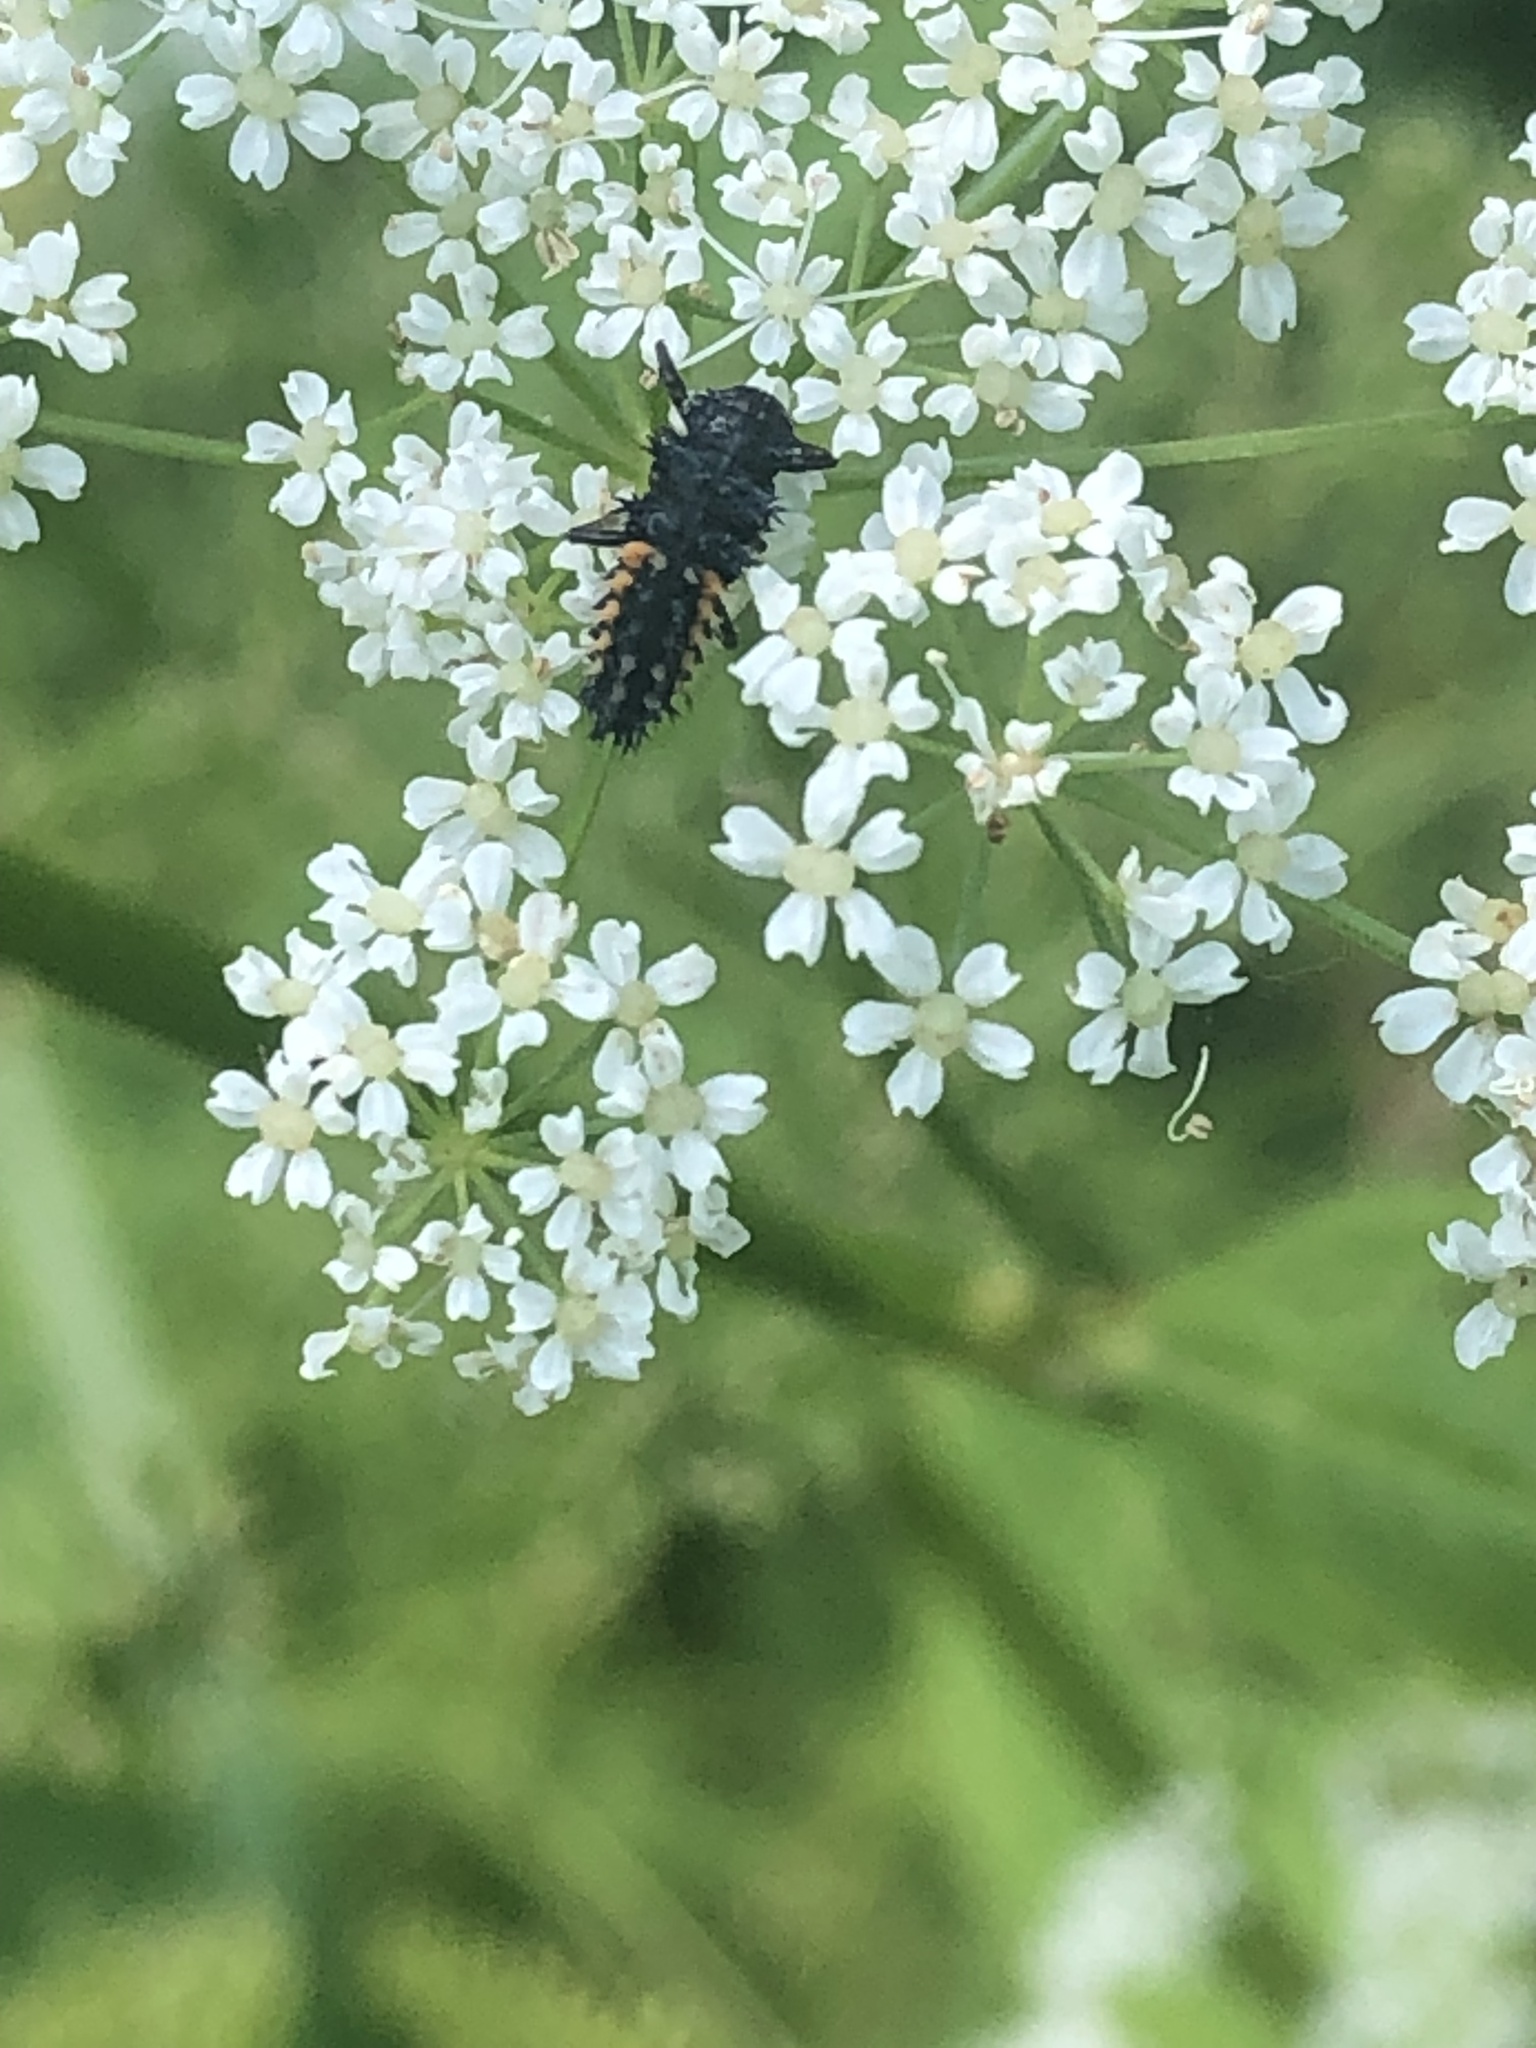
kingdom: Animalia
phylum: Arthropoda
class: Insecta
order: Coleoptera
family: Coccinellidae
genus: Harmonia
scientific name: Harmonia axyridis
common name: Harlequin ladybird
